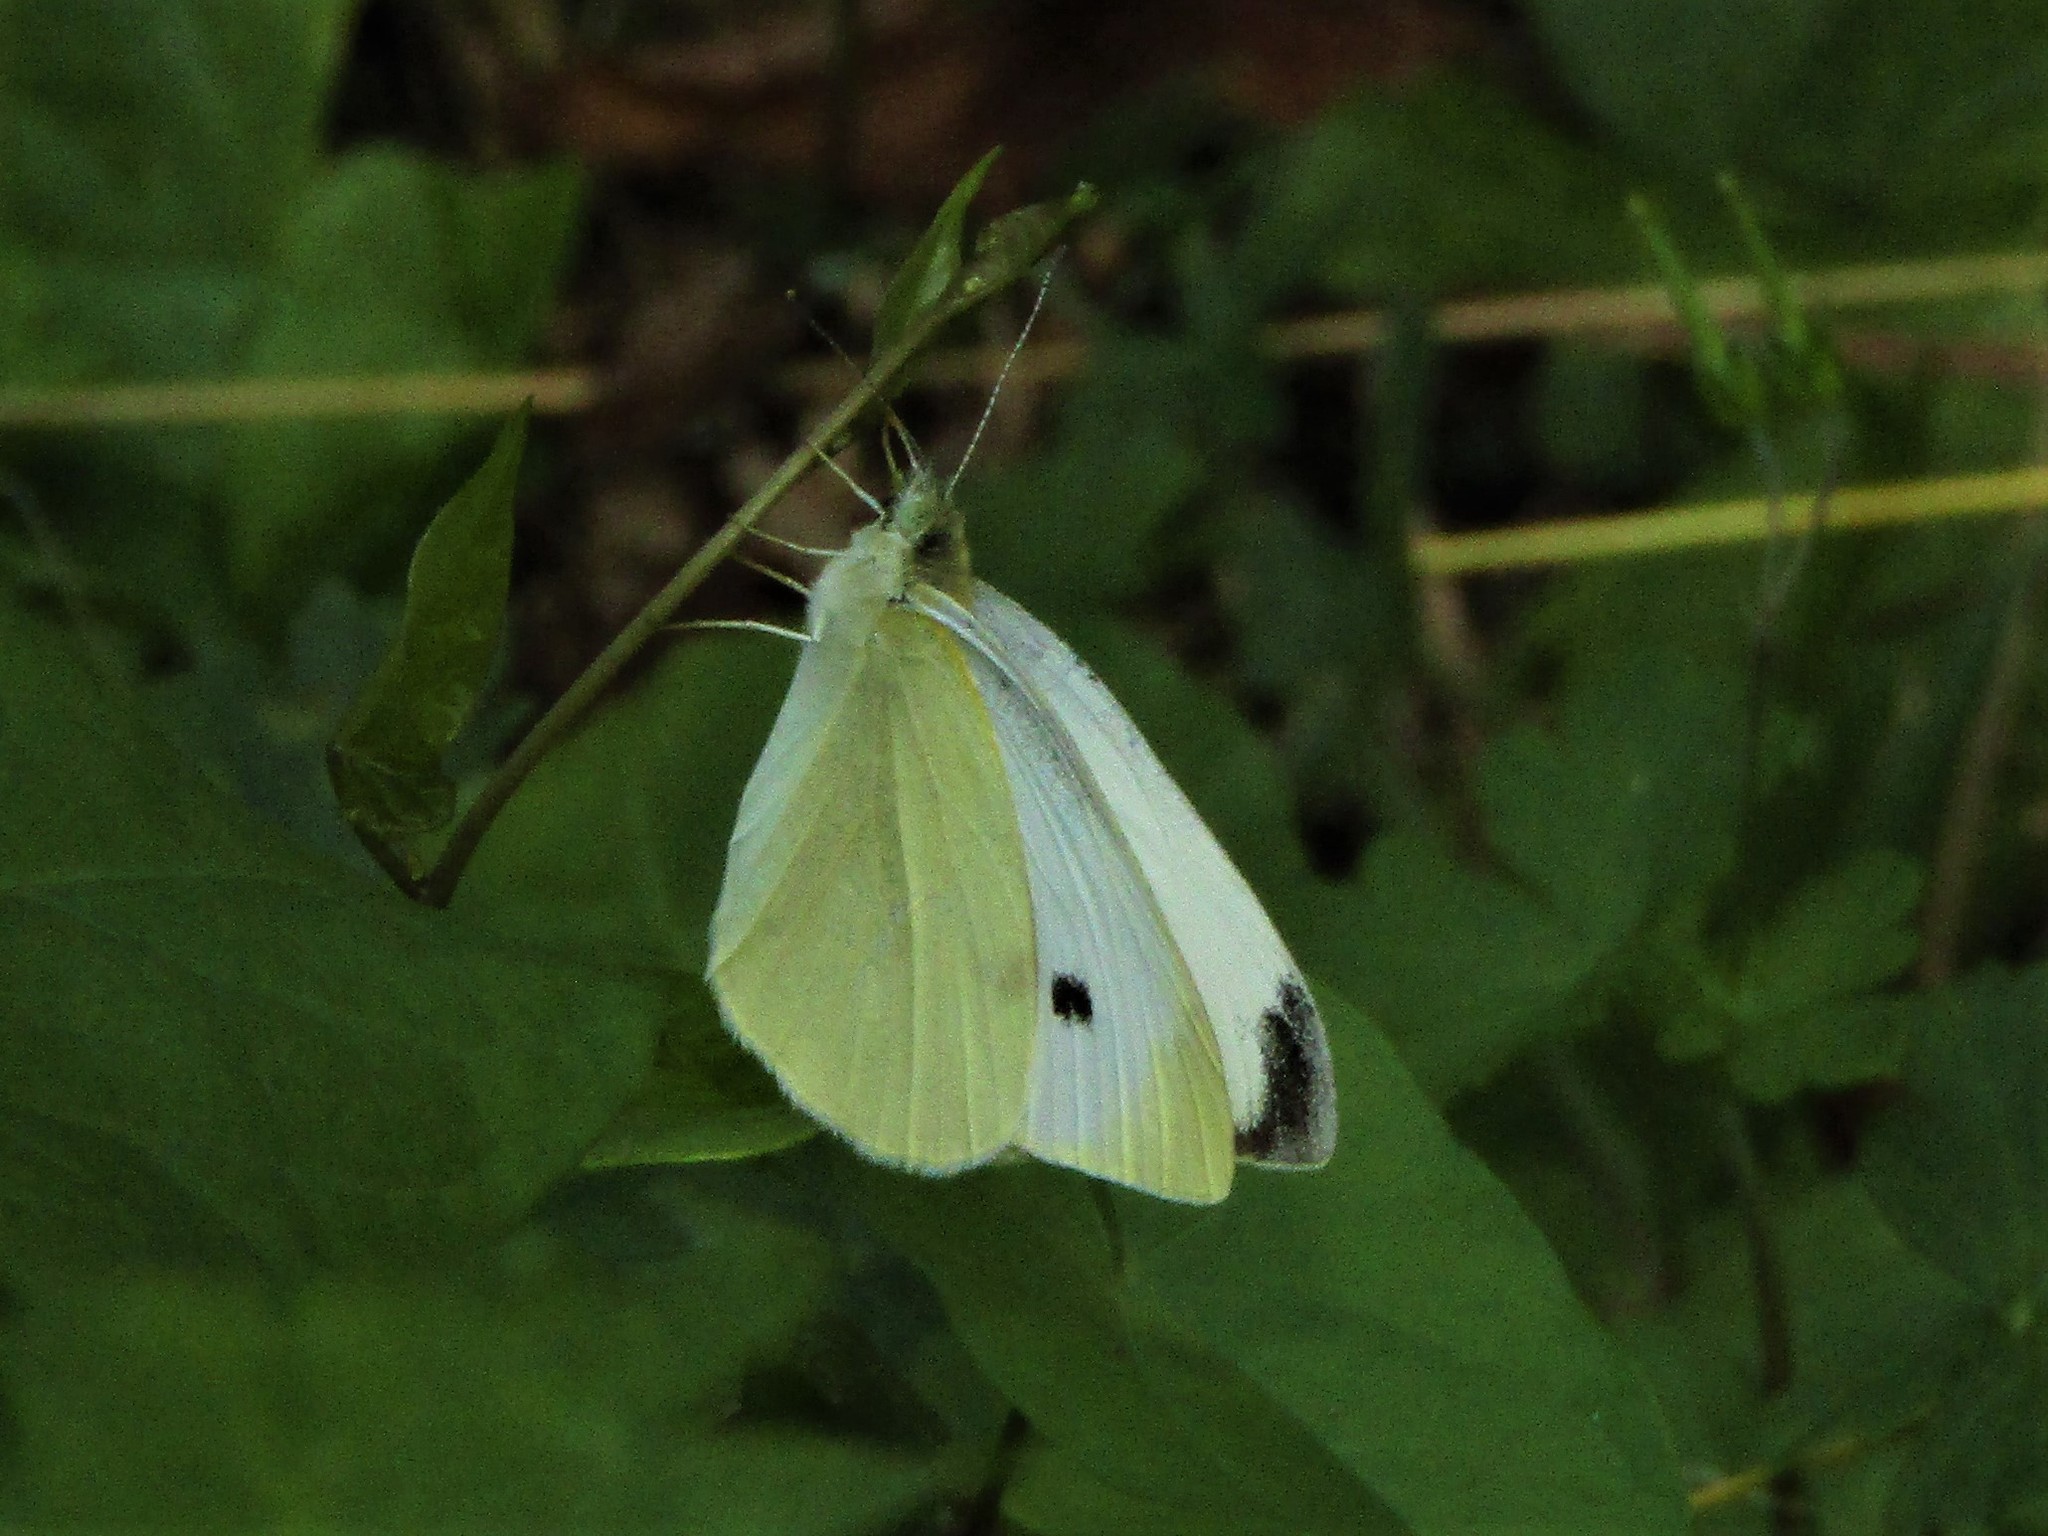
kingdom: Animalia
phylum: Arthropoda
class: Insecta
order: Lepidoptera
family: Pieridae
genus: Pieris
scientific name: Pieris rapae
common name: Small white
